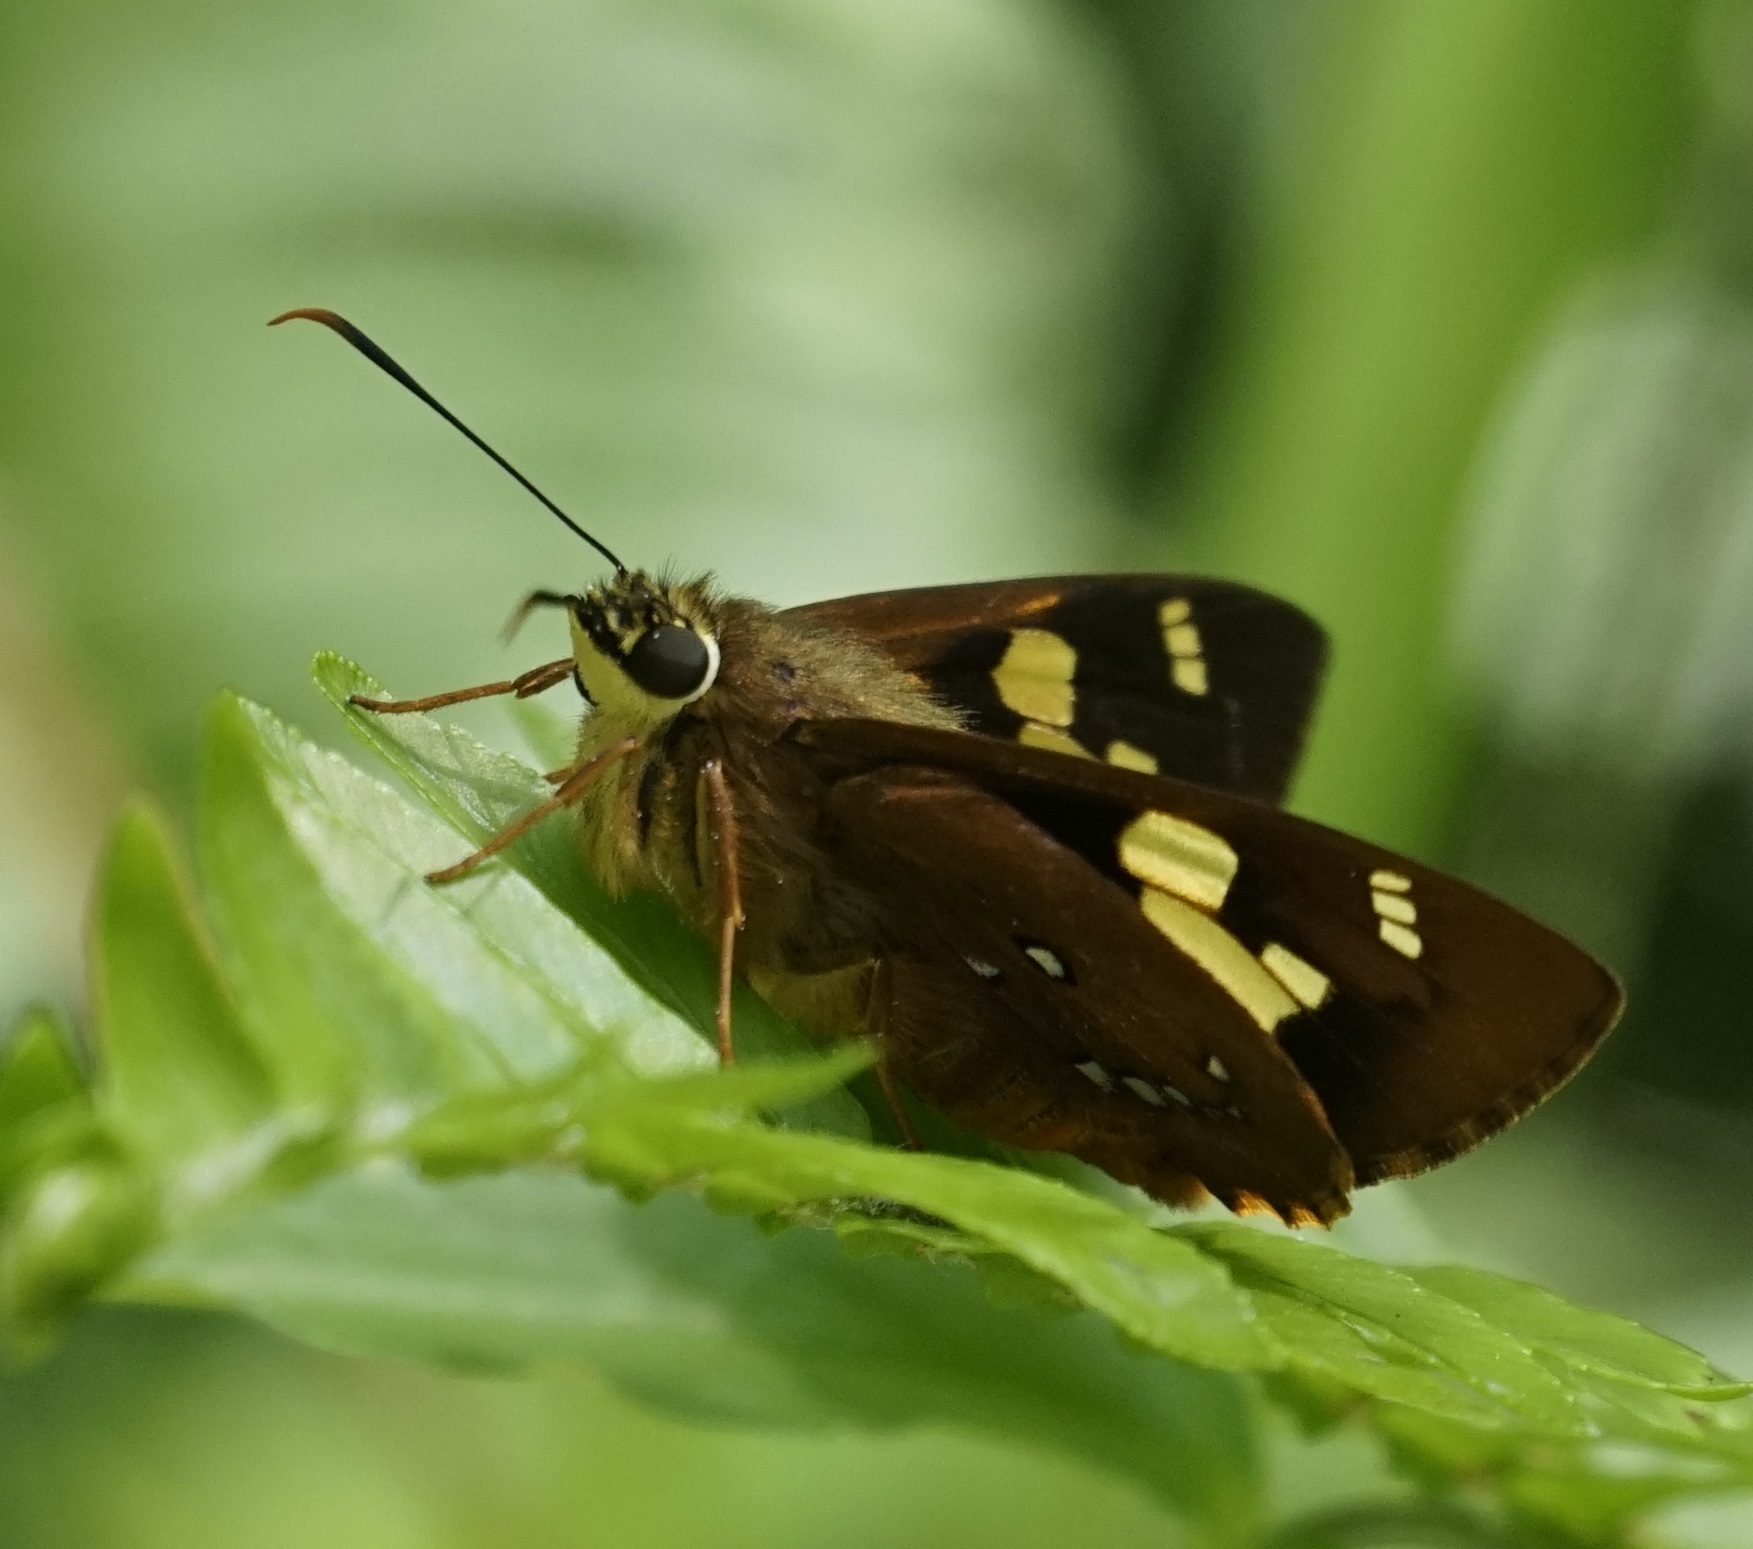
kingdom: Animalia
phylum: Arthropoda
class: Insecta
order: Lepidoptera
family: Hesperiidae
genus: Trapezites
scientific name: Trapezites symmomus
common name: Splendid ochre
